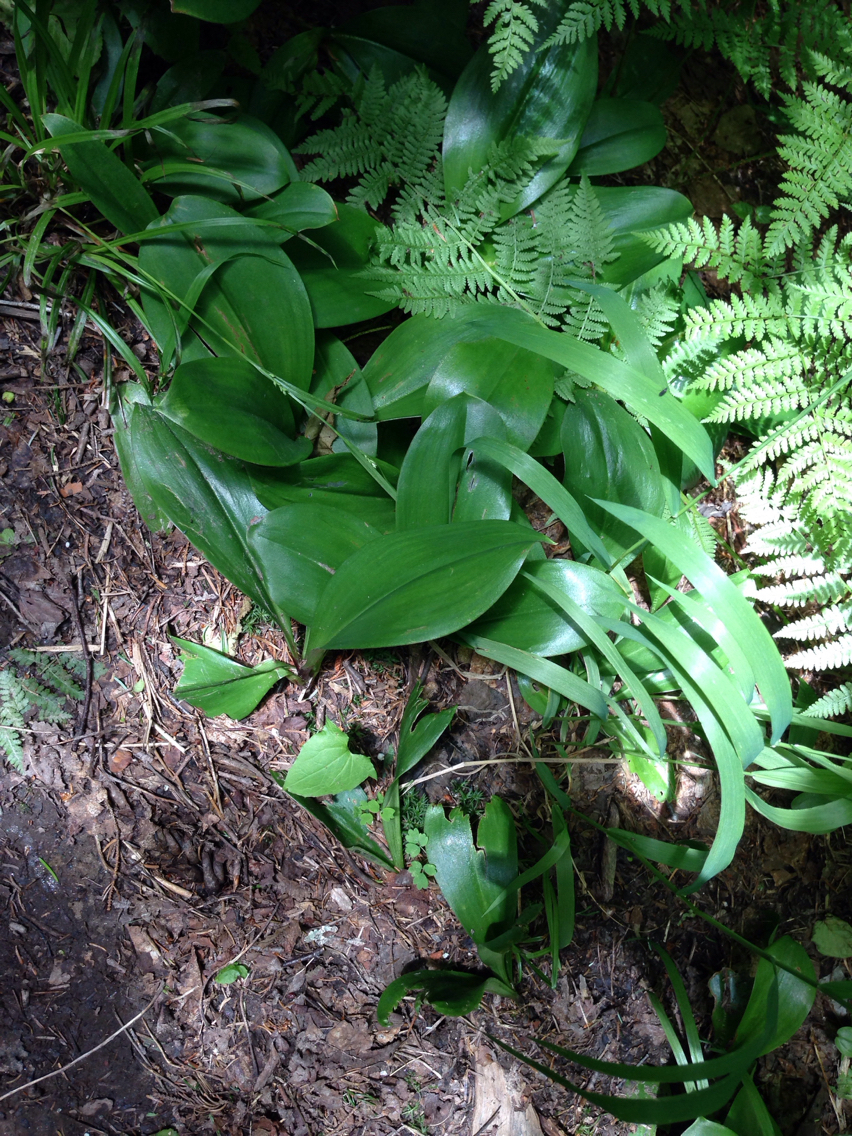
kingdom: Plantae
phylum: Tracheophyta
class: Liliopsida
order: Liliales
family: Liliaceae
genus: Clintonia
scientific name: Clintonia borealis
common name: Yellow clintonia
